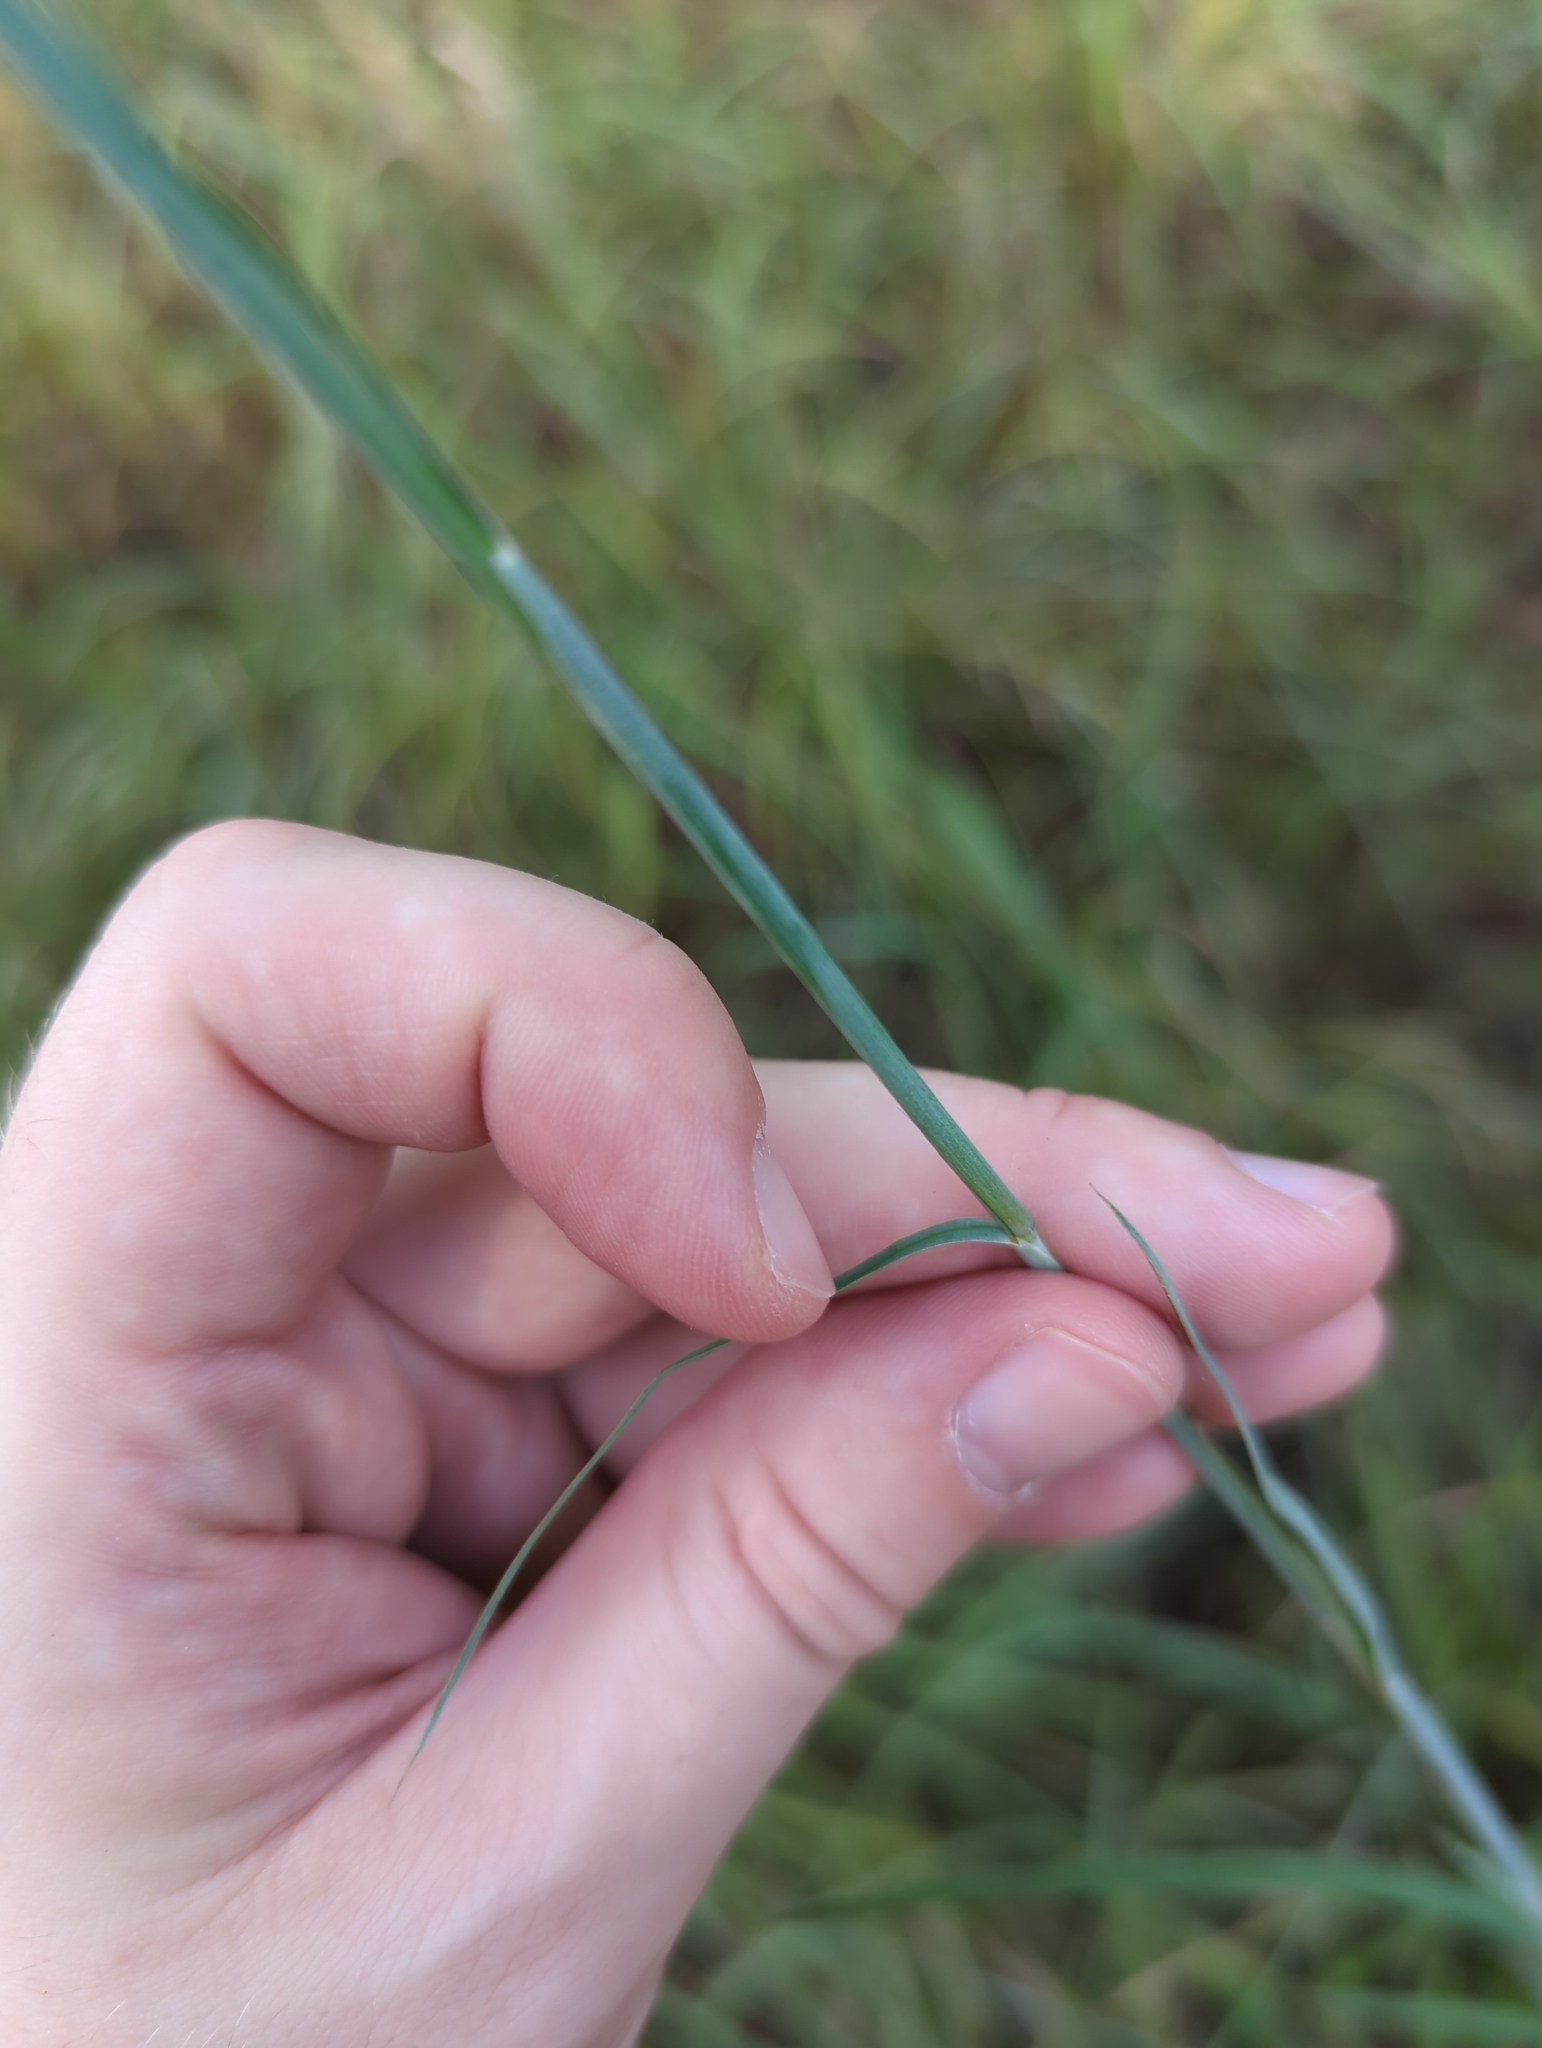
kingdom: Plantae
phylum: Tracheophyta
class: Liliopsida
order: Poales
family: Poaceae
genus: Schizachyrium
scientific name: Schizachyrium scoparium
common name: Little bluestem
